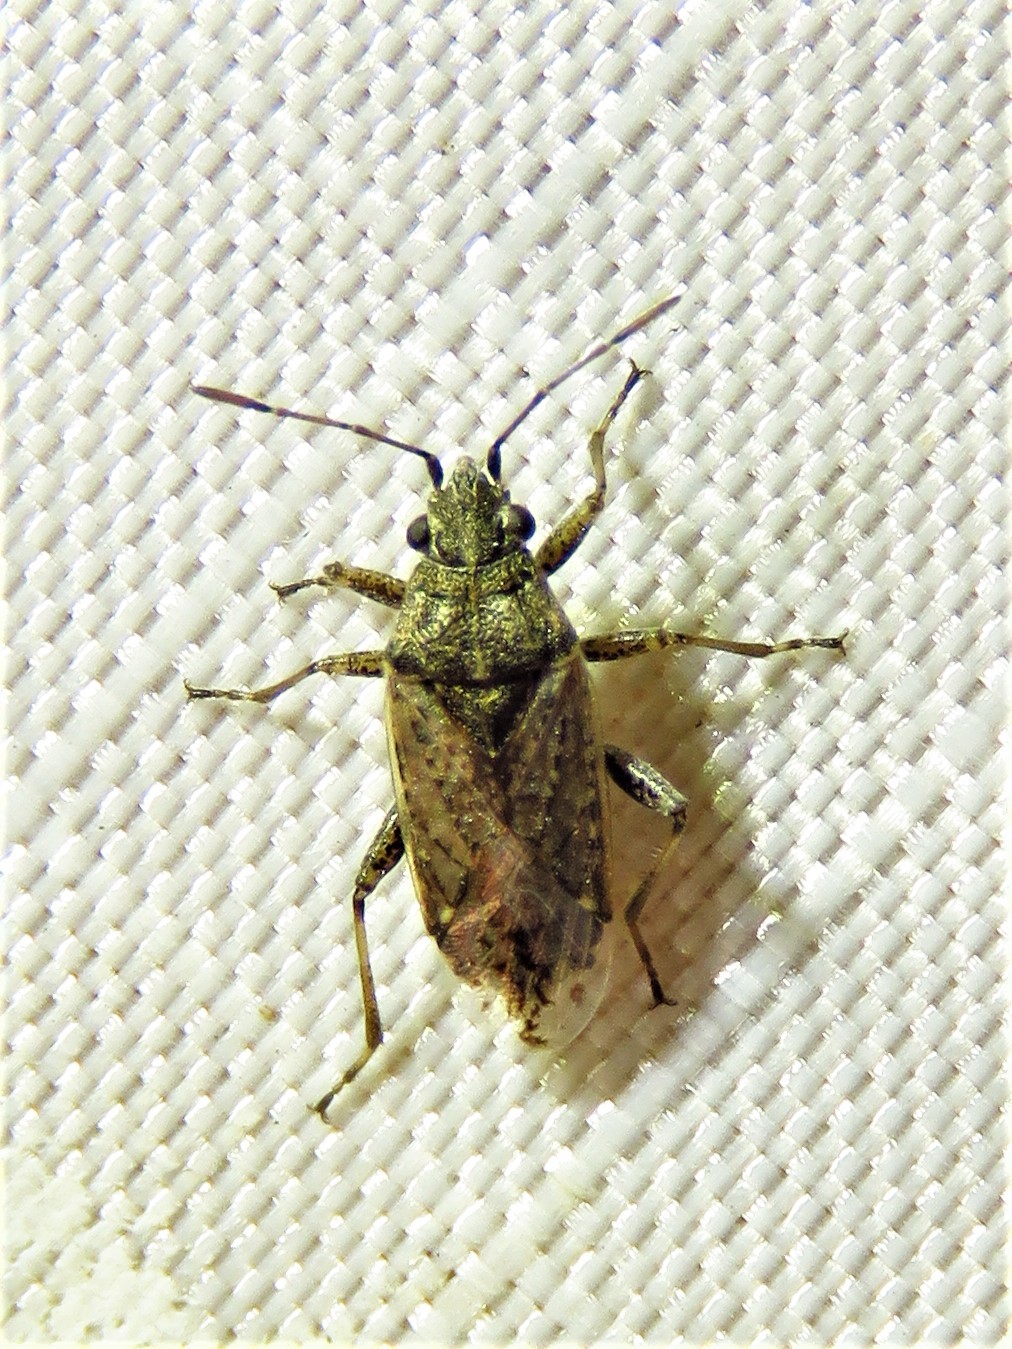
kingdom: Animalia
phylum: Arthropoda
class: Insecta
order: Hemiptera
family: Lygaeidae
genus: Xyonysius
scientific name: Xyonysius californicus
